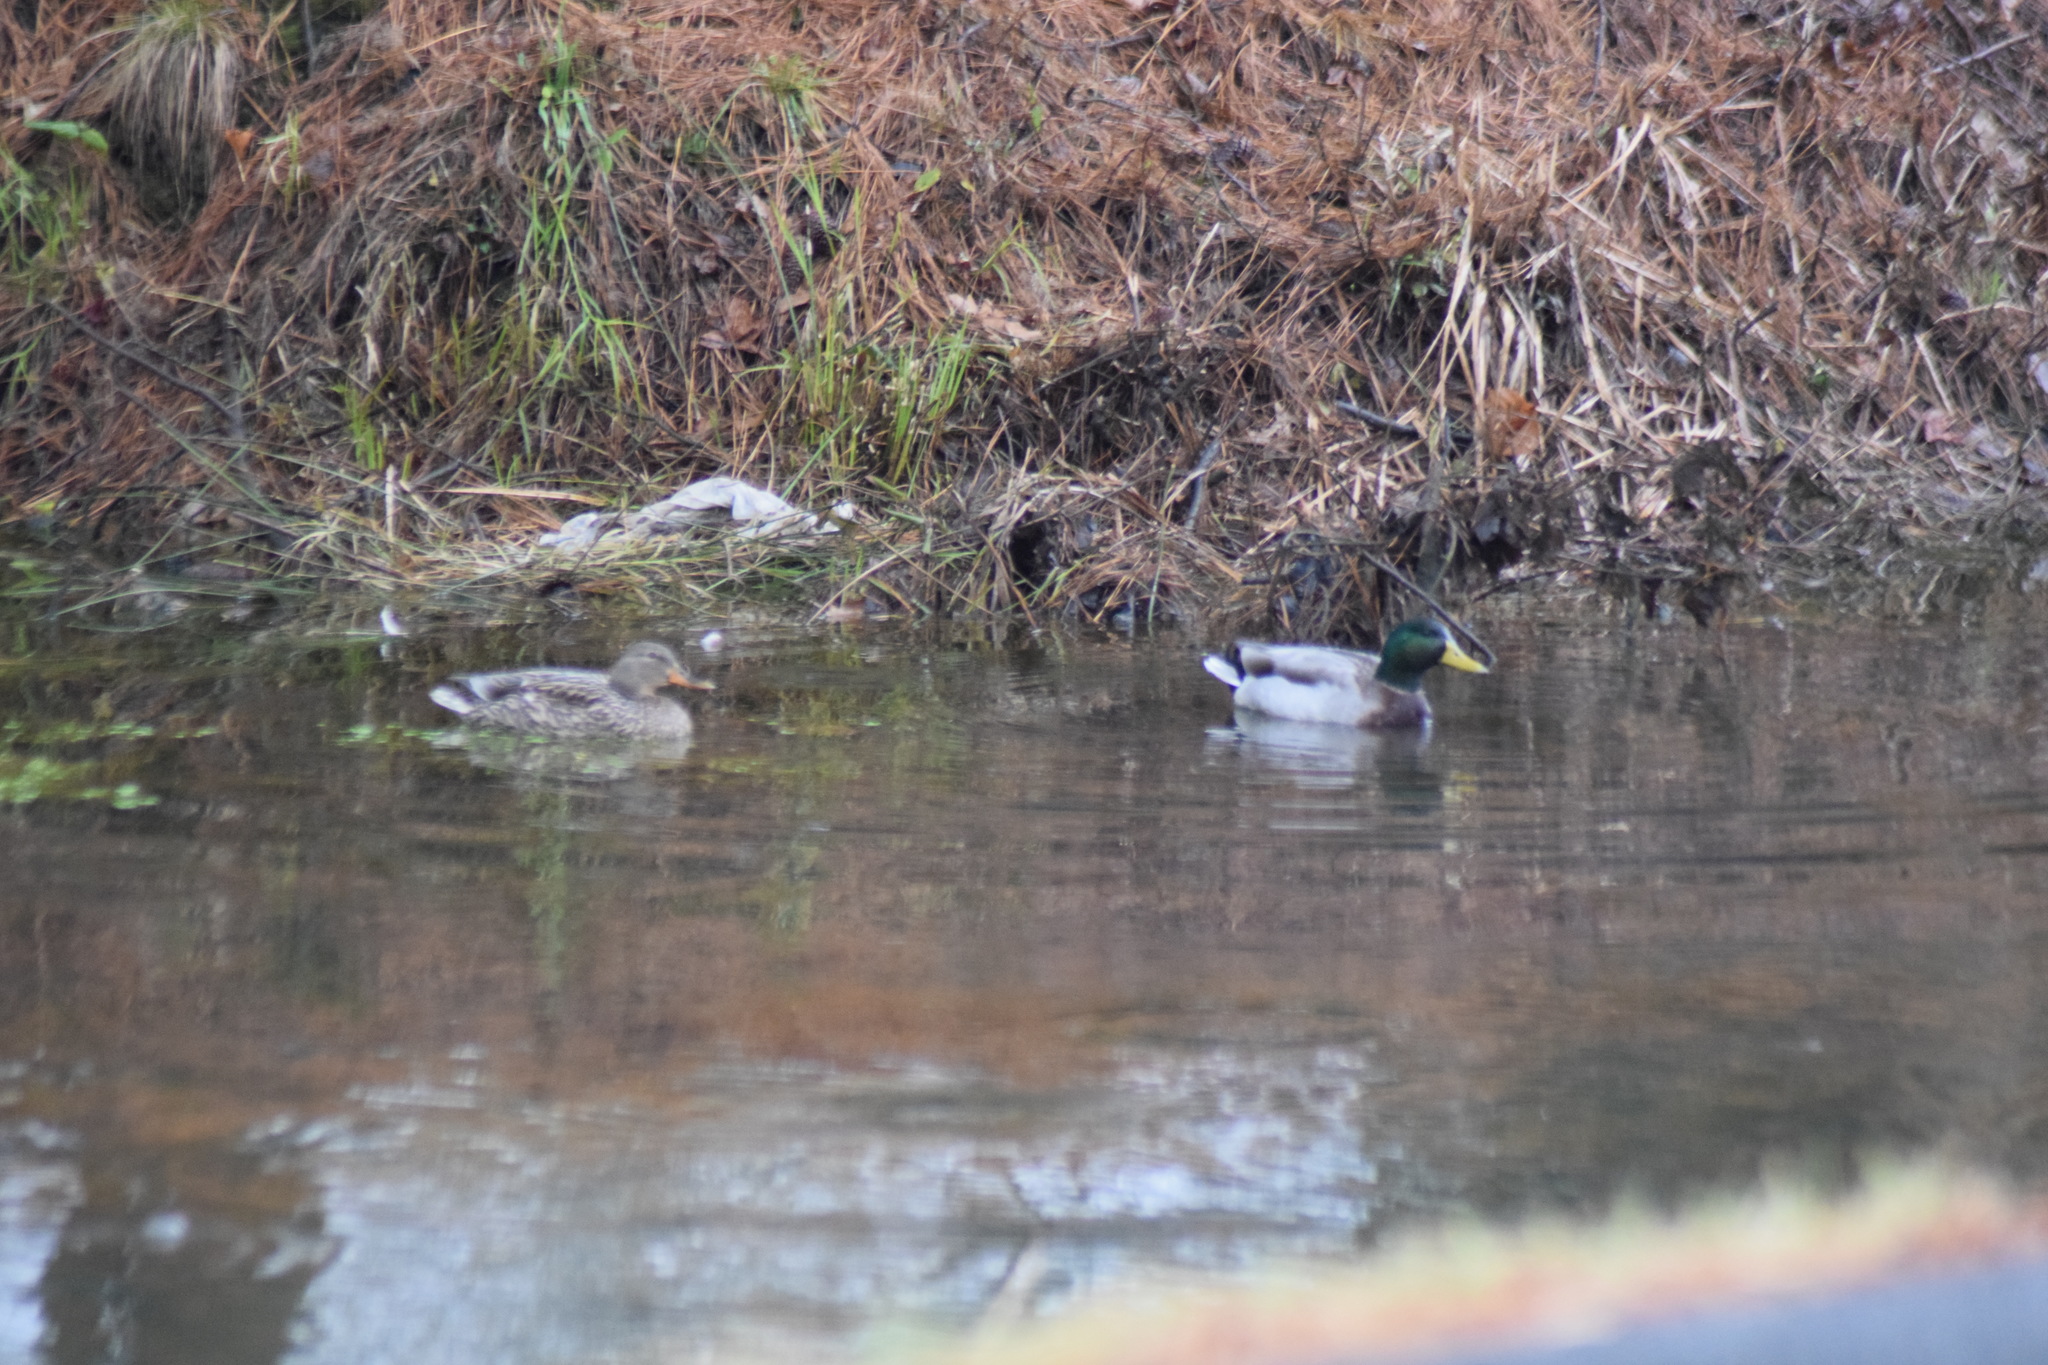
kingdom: Animalia
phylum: Chordata
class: Aves
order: Anseriformes
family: Anatidae
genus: Anas
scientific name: Anas platyrhynchos
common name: Mallard
